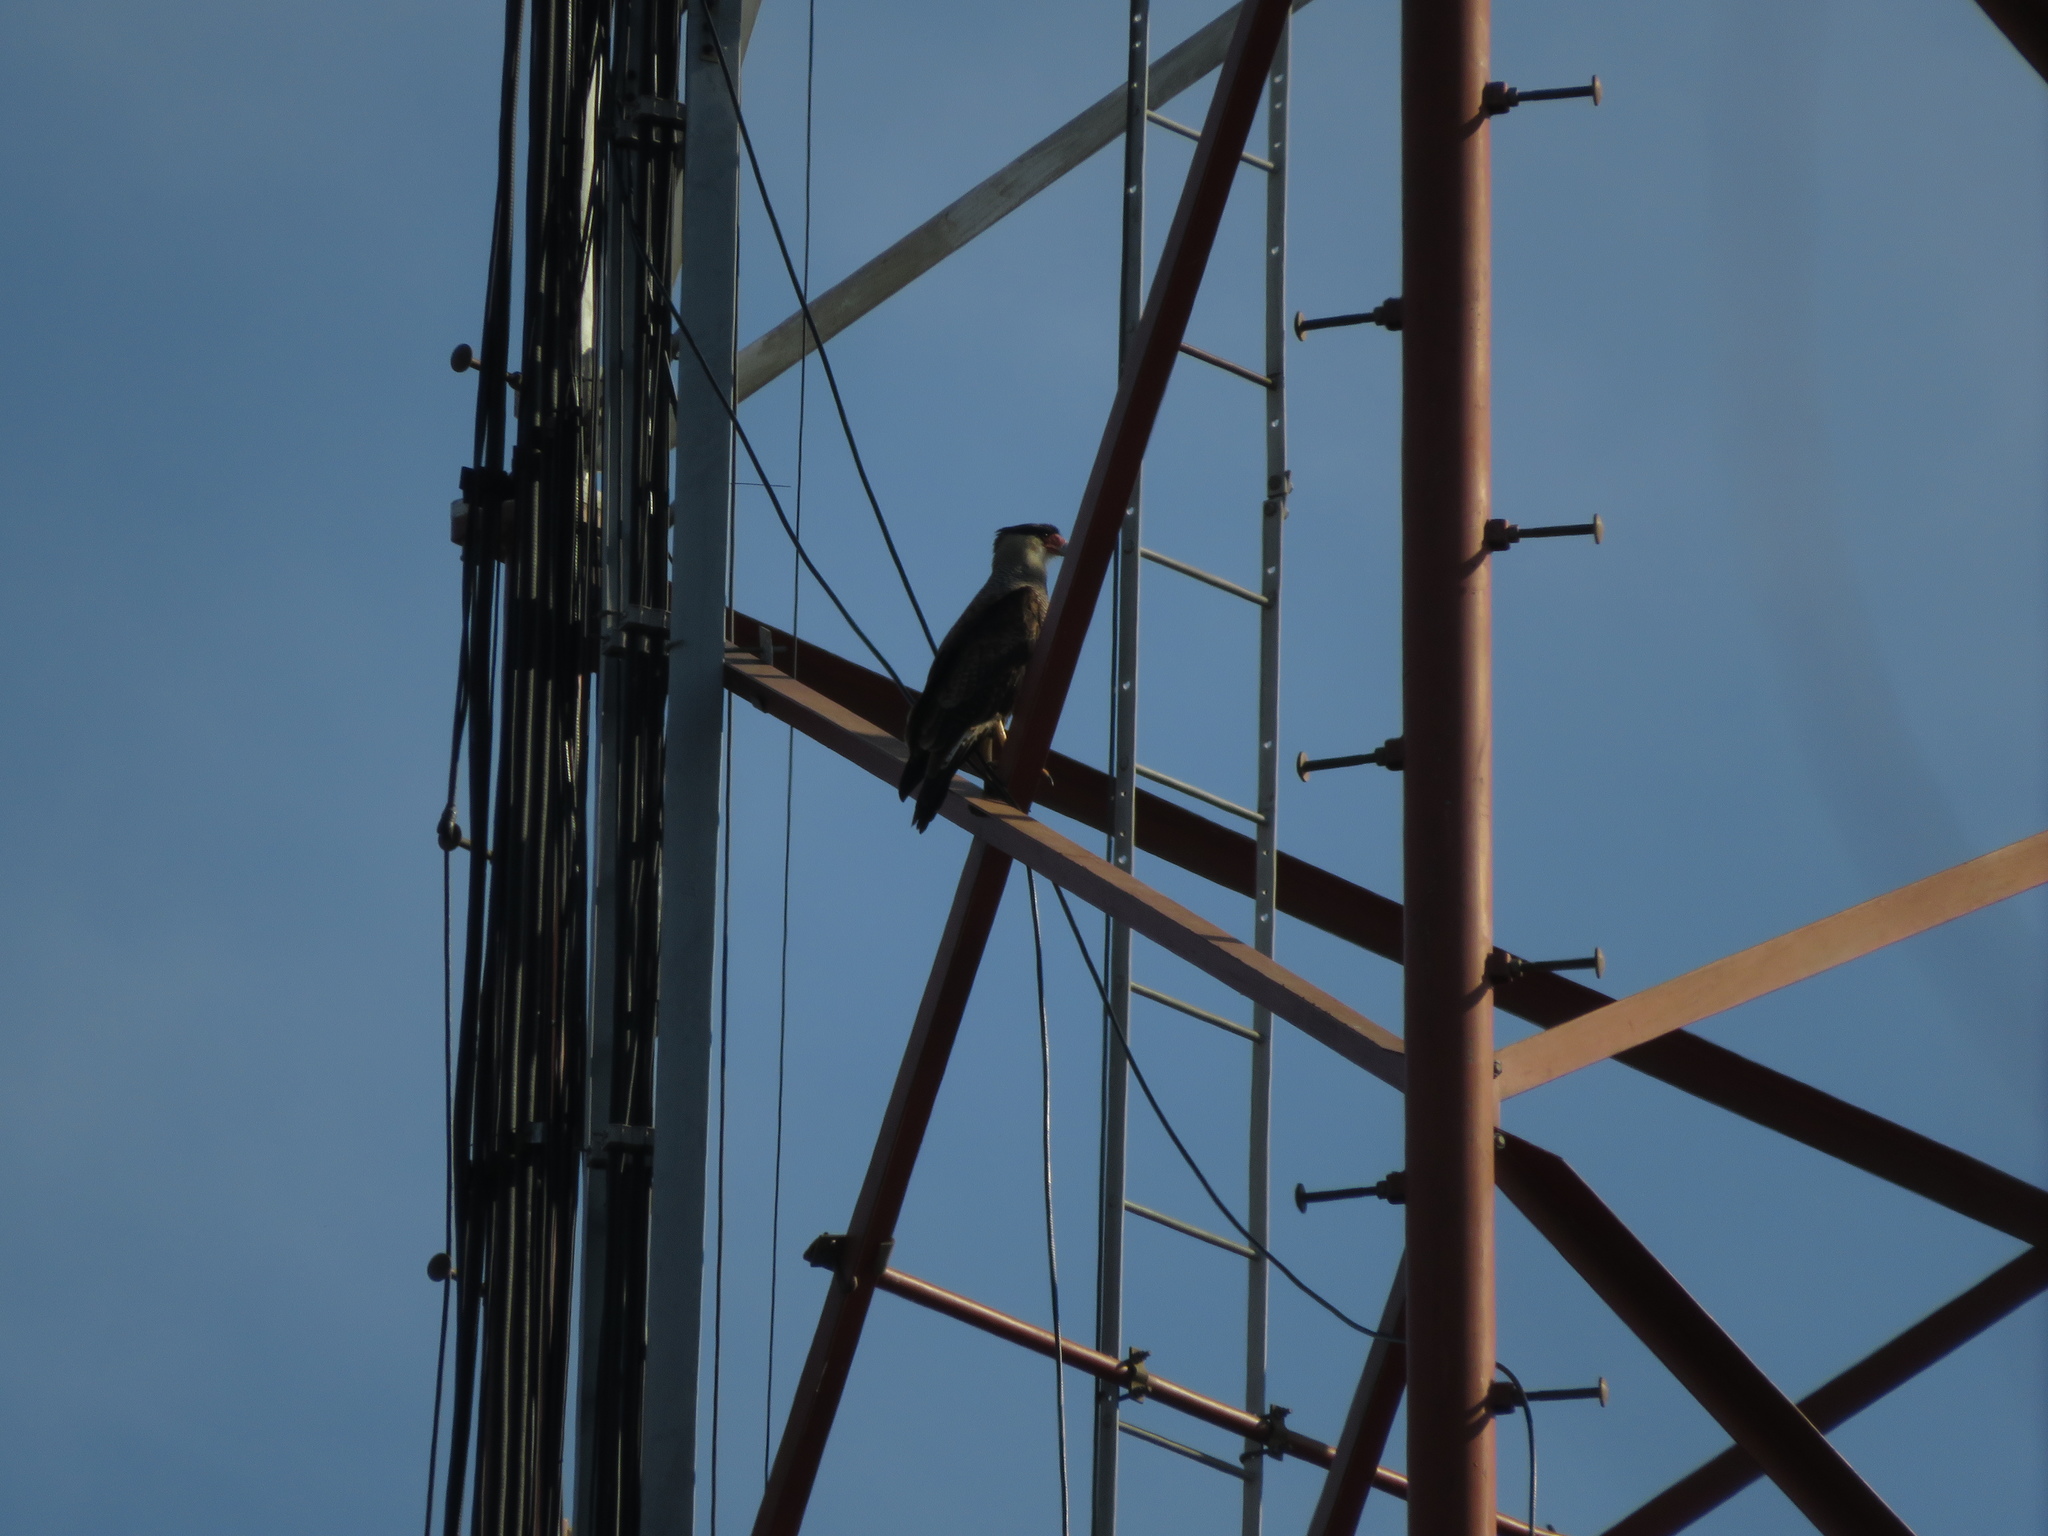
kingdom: Animalia
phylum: Chordata
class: Aves
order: Falconiformes
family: Falconidae
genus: Caracara
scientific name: Caracara plancus
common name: Southern caracara
